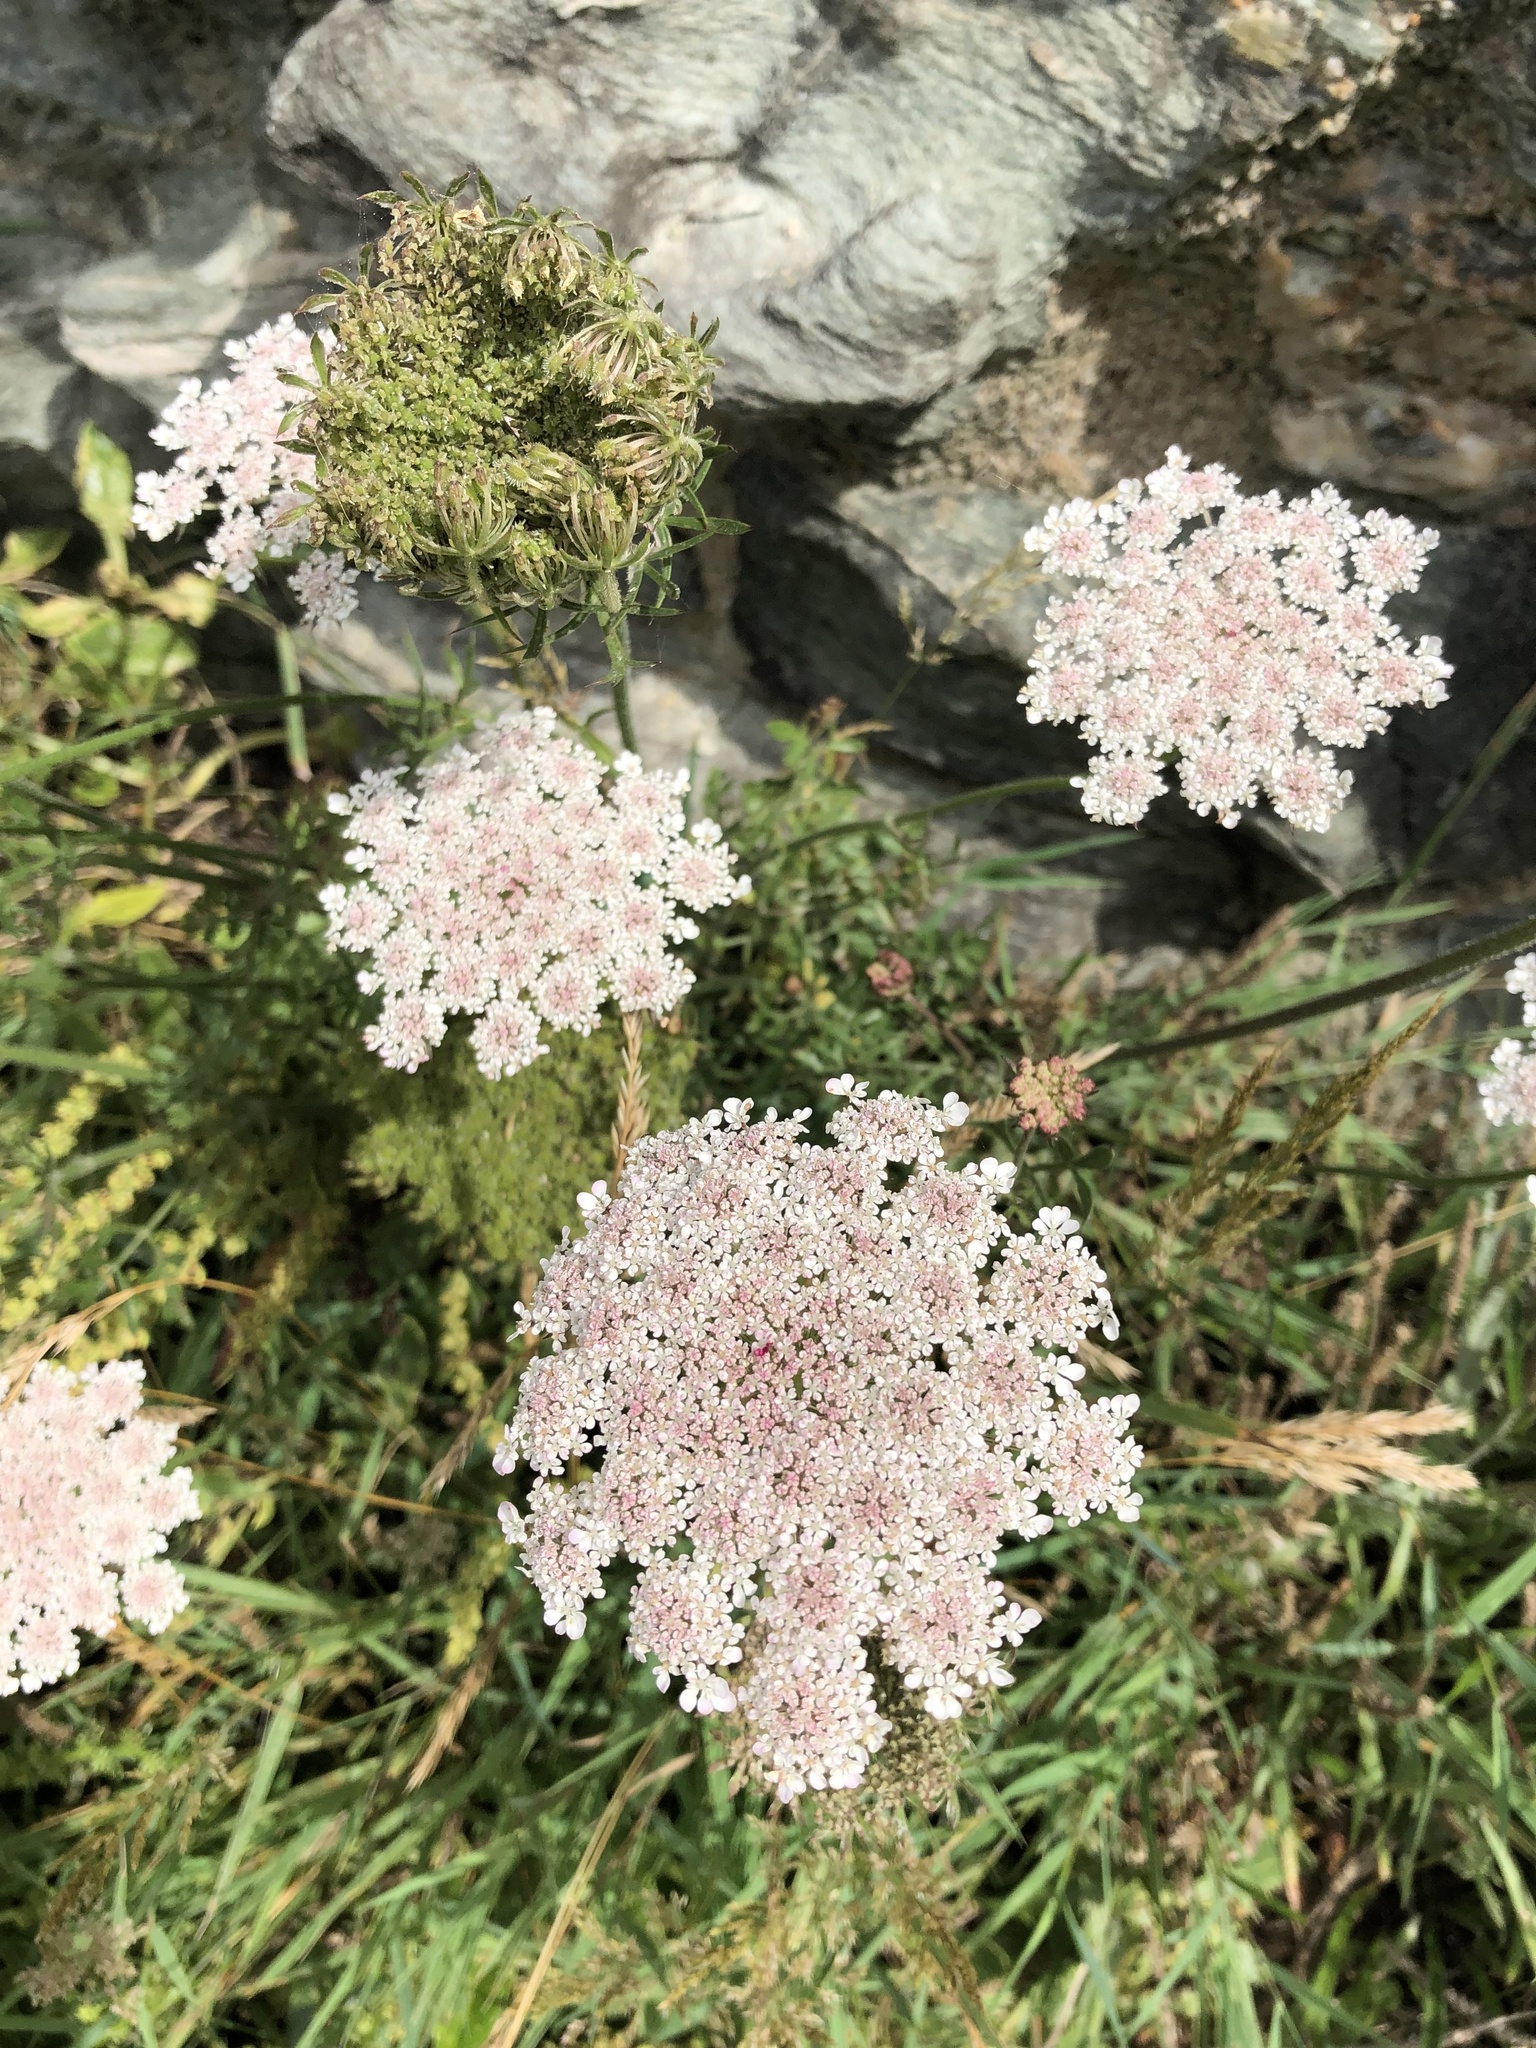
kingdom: Plantae
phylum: Tracheophyta
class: Magnoliopsida
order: Apiales
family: Apiaceae
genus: Daucus
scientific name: Daucus carota
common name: Wild carrot
